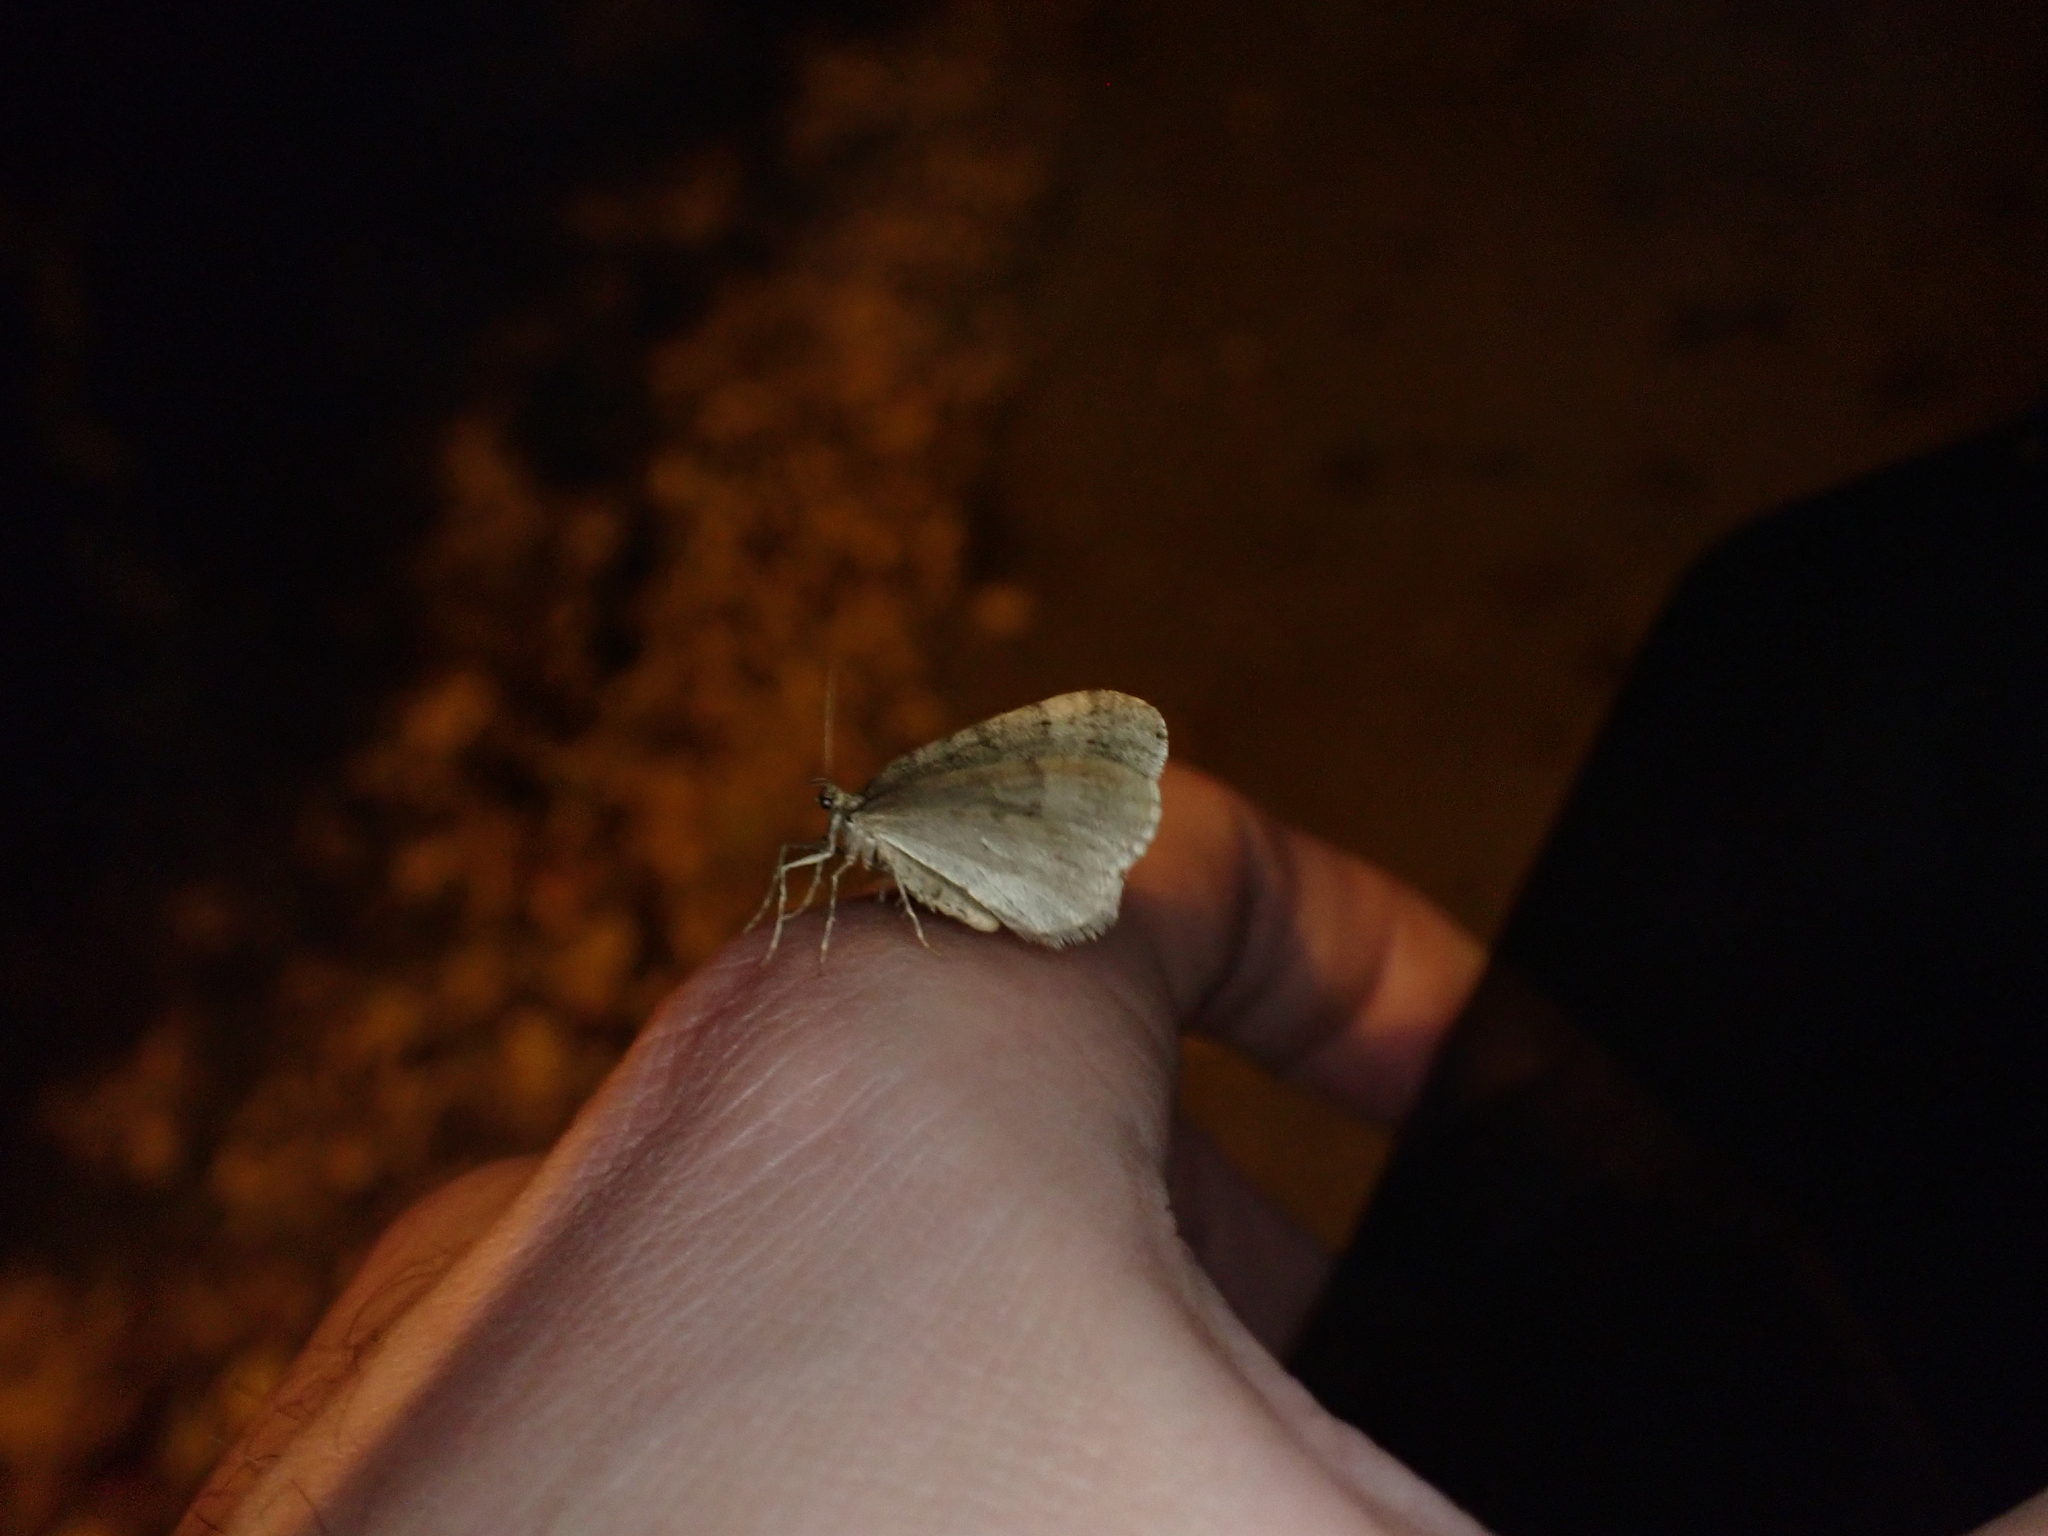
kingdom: Animalia
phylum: Arthropoda
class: Insecta
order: Lepidoptera
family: Geometridae
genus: Operophtera
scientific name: Operophtera brumata
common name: Winter moth
